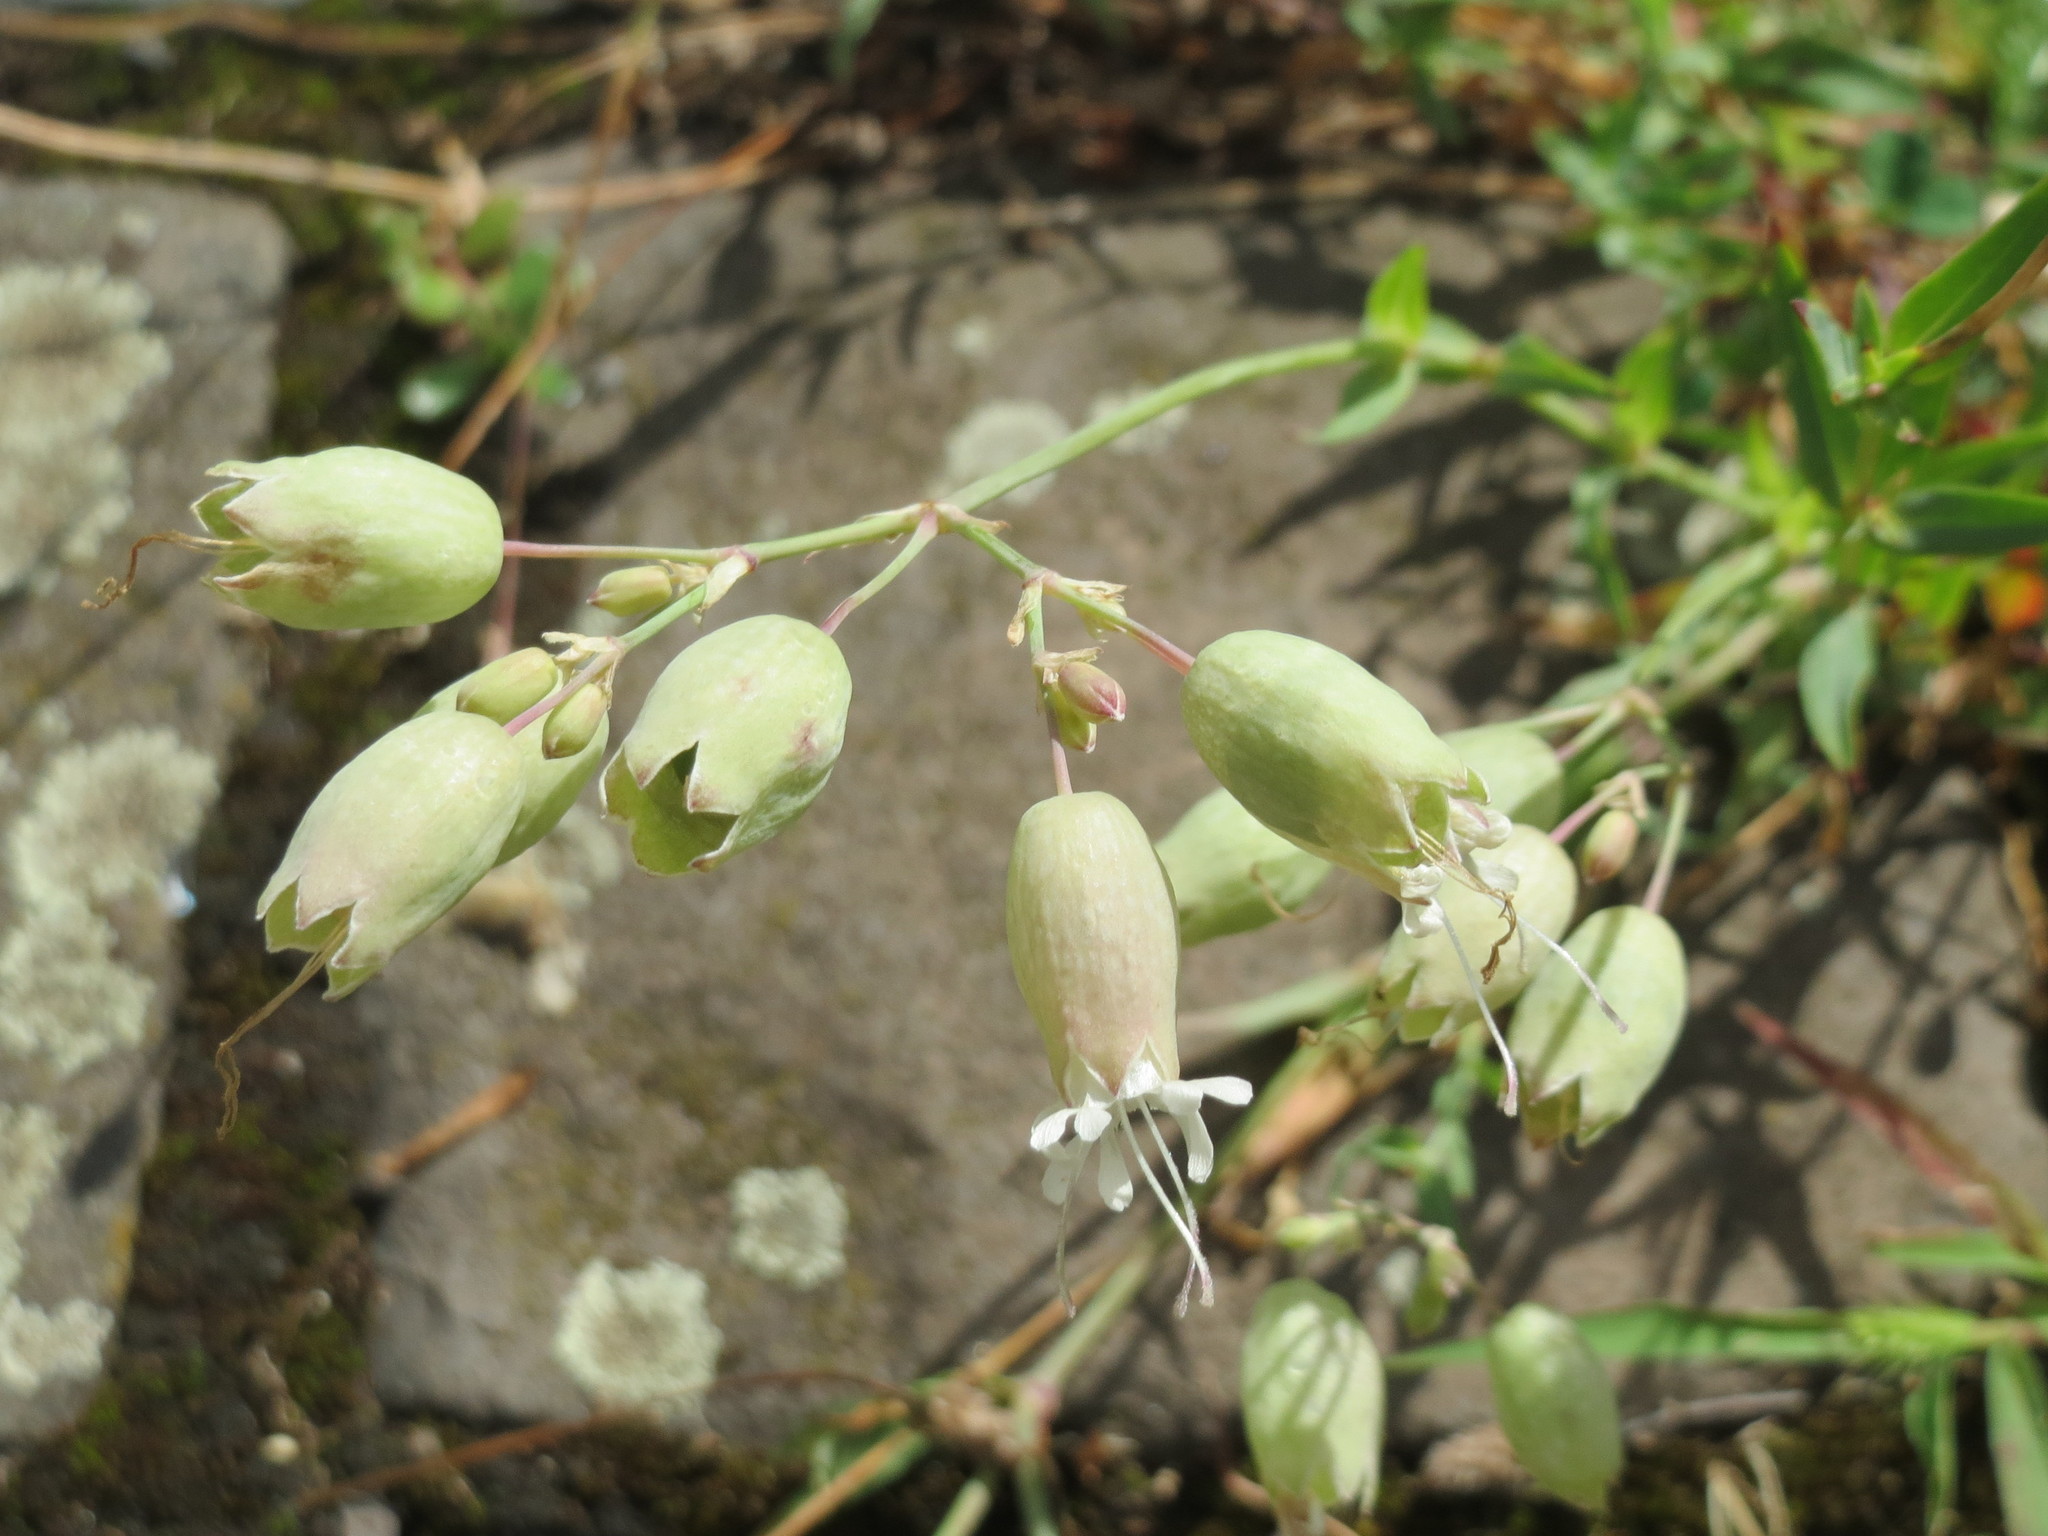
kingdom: Plantae
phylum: Tracheophyta
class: Magnoliopsida
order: Caryophyllales
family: Caryophyllaceae
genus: Silene
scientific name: Silene vulgaris
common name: Bladder campion
